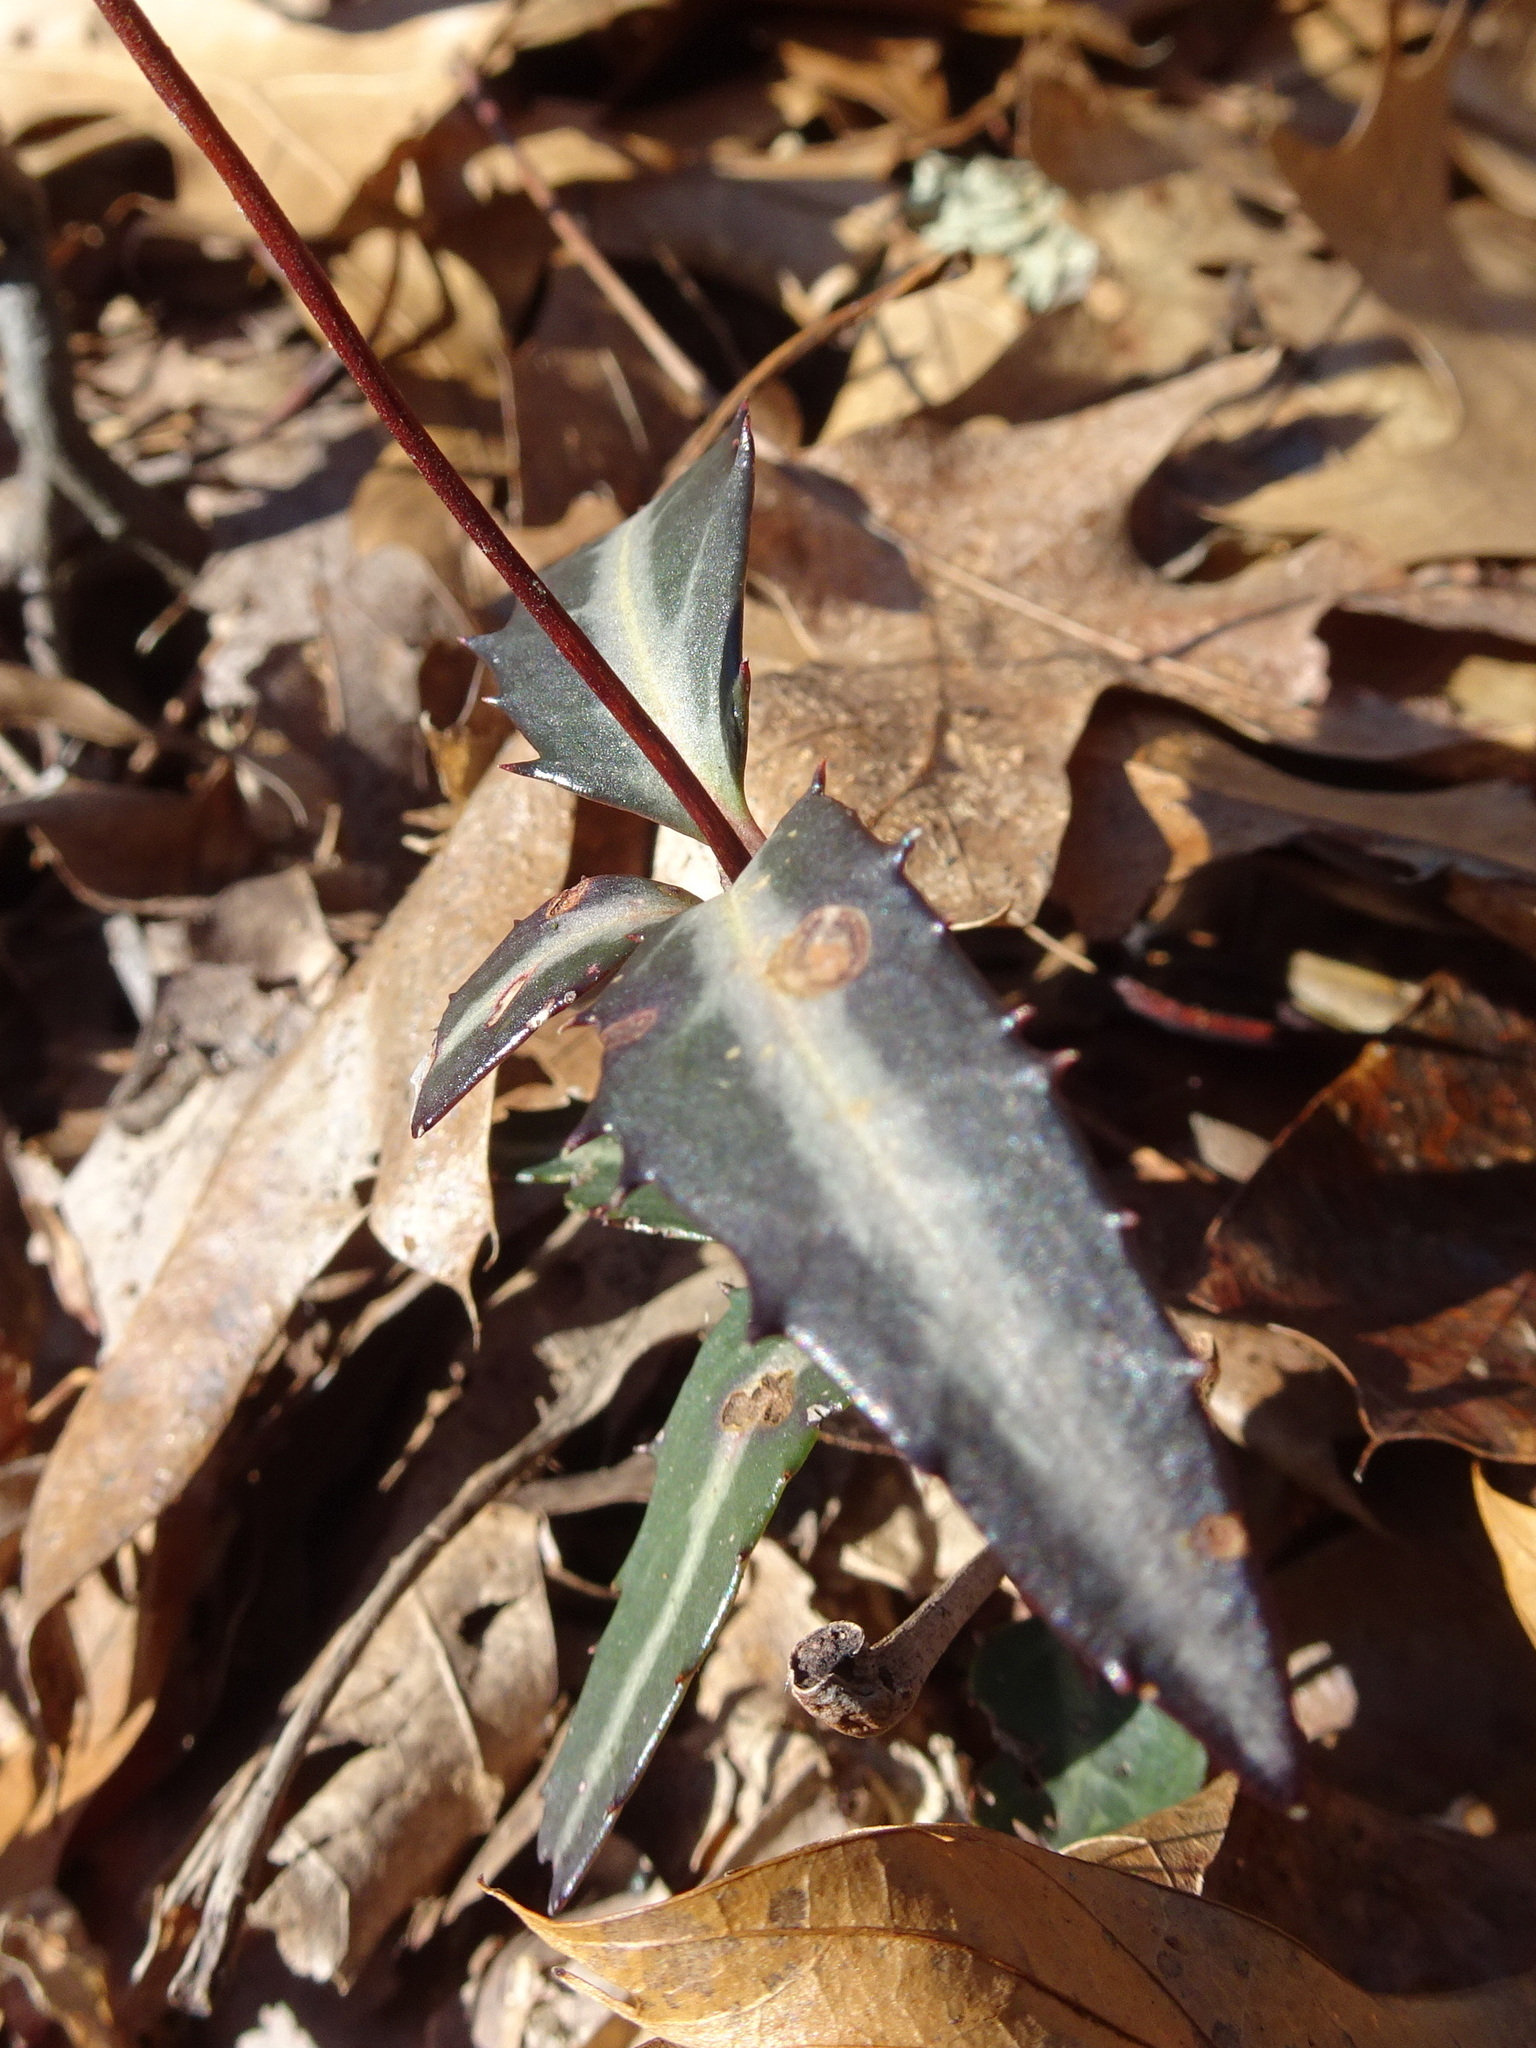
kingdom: Plantae
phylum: Tracheophyta
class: Magnoliopsida
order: Ericales
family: Ericaceae
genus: Chimaphila
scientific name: Chimaphila maculata
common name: Spotted pipsissewa
